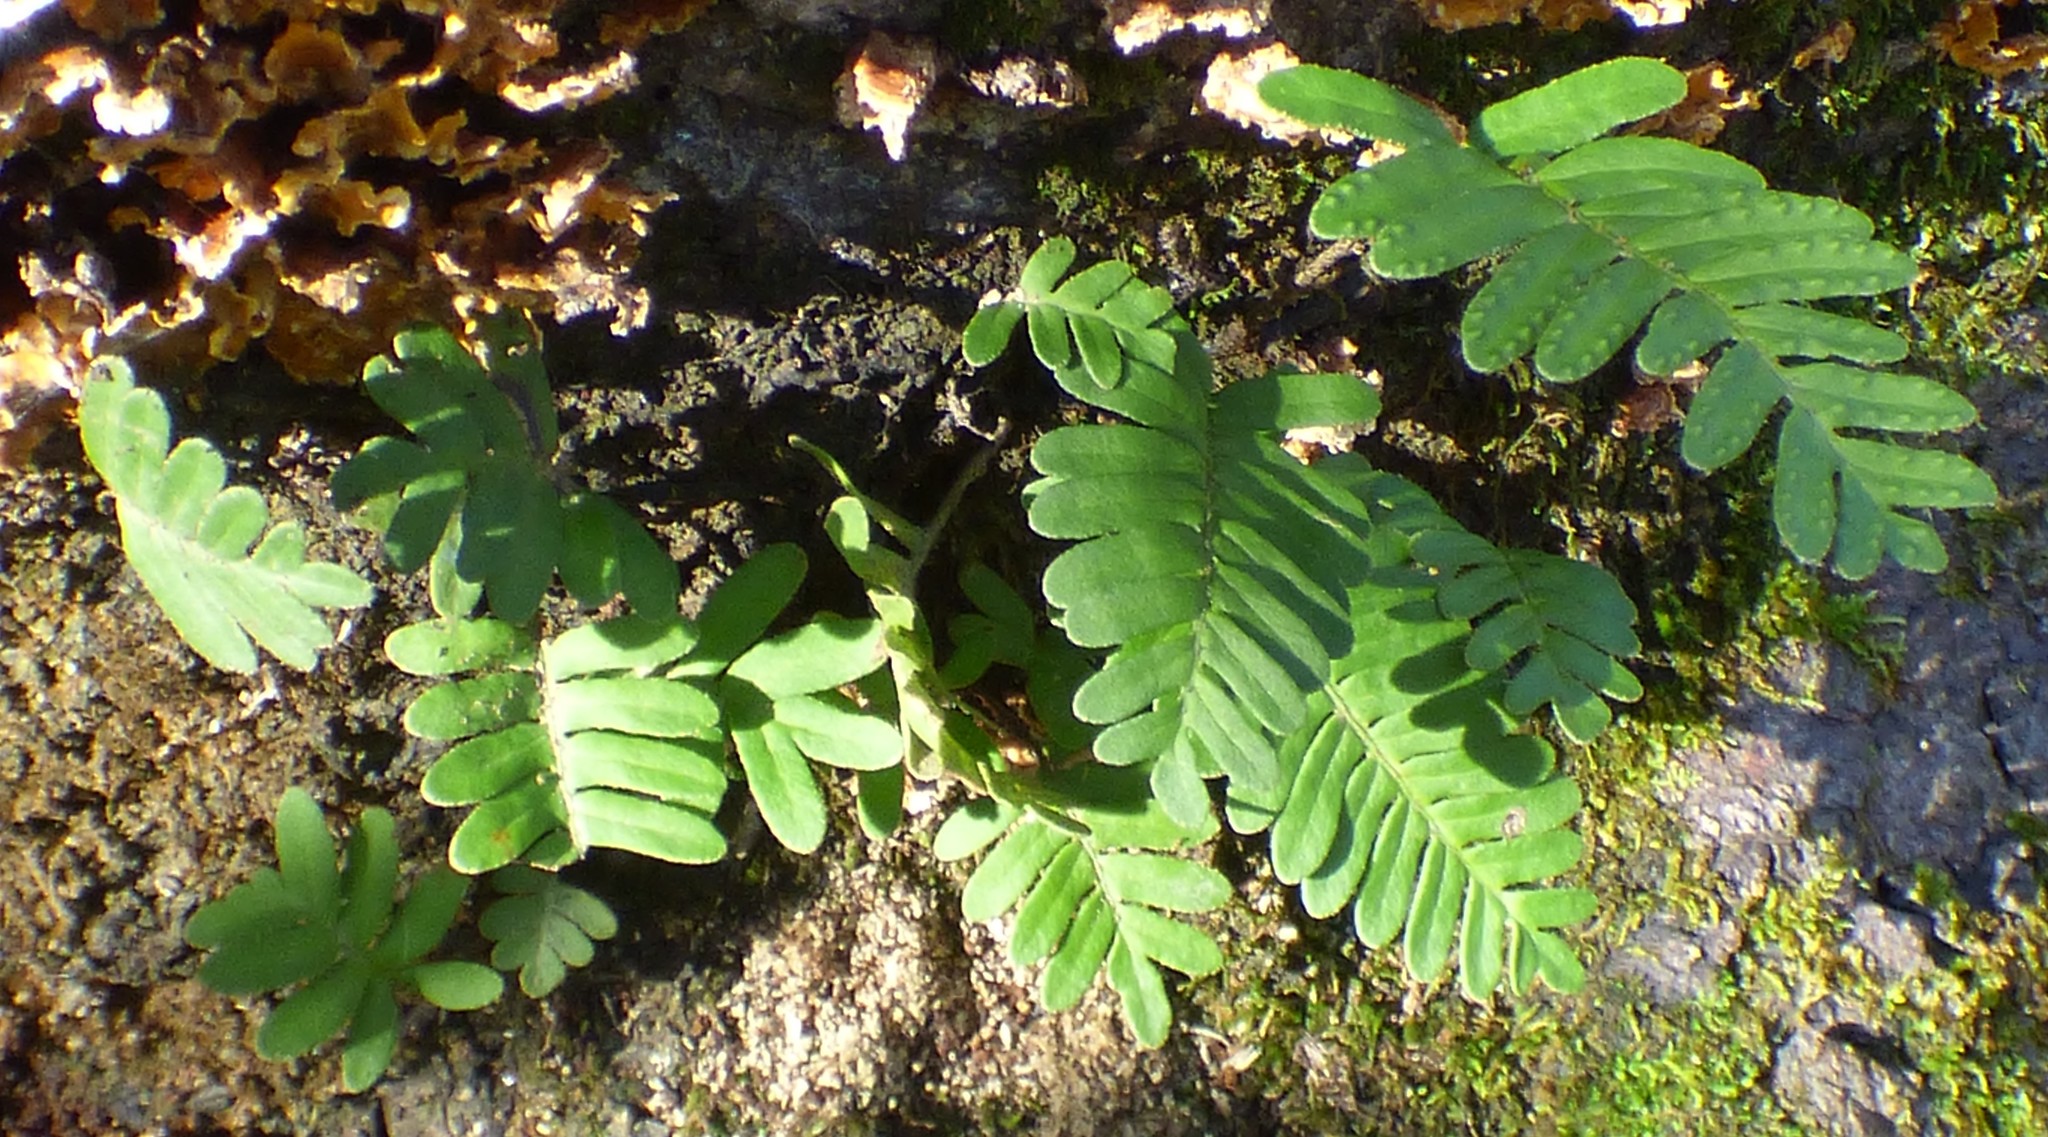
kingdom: Plantae
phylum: Tracheophyta
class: Polypodiopsida
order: Polypodiales
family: Polypodiaceae
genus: Pleopeltis
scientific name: Pleopeltis michauxiana
